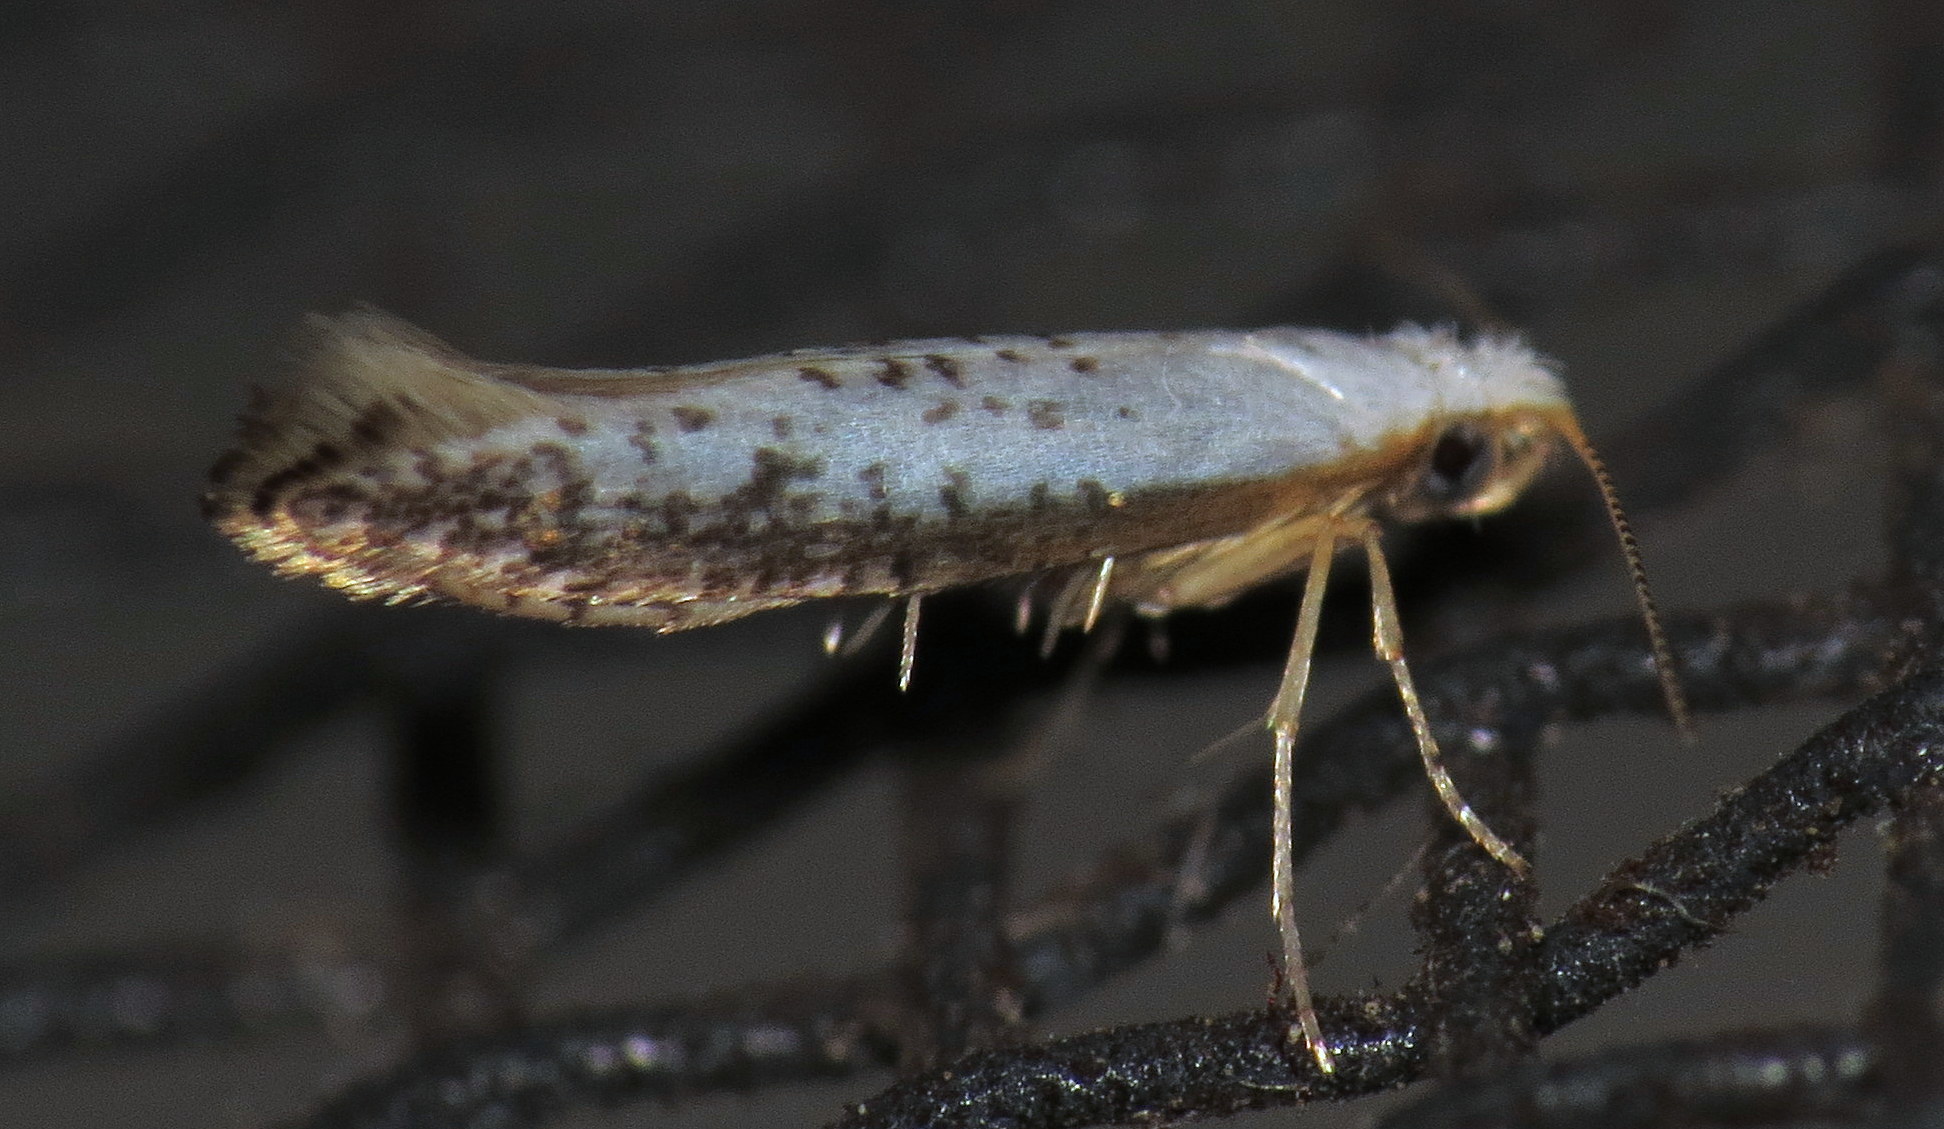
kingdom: Animalia
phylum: Arthropoda
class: Insecta
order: Lepidoptera
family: Argyresthiidae
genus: Argyresthia
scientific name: Argyresthia subreticulata
